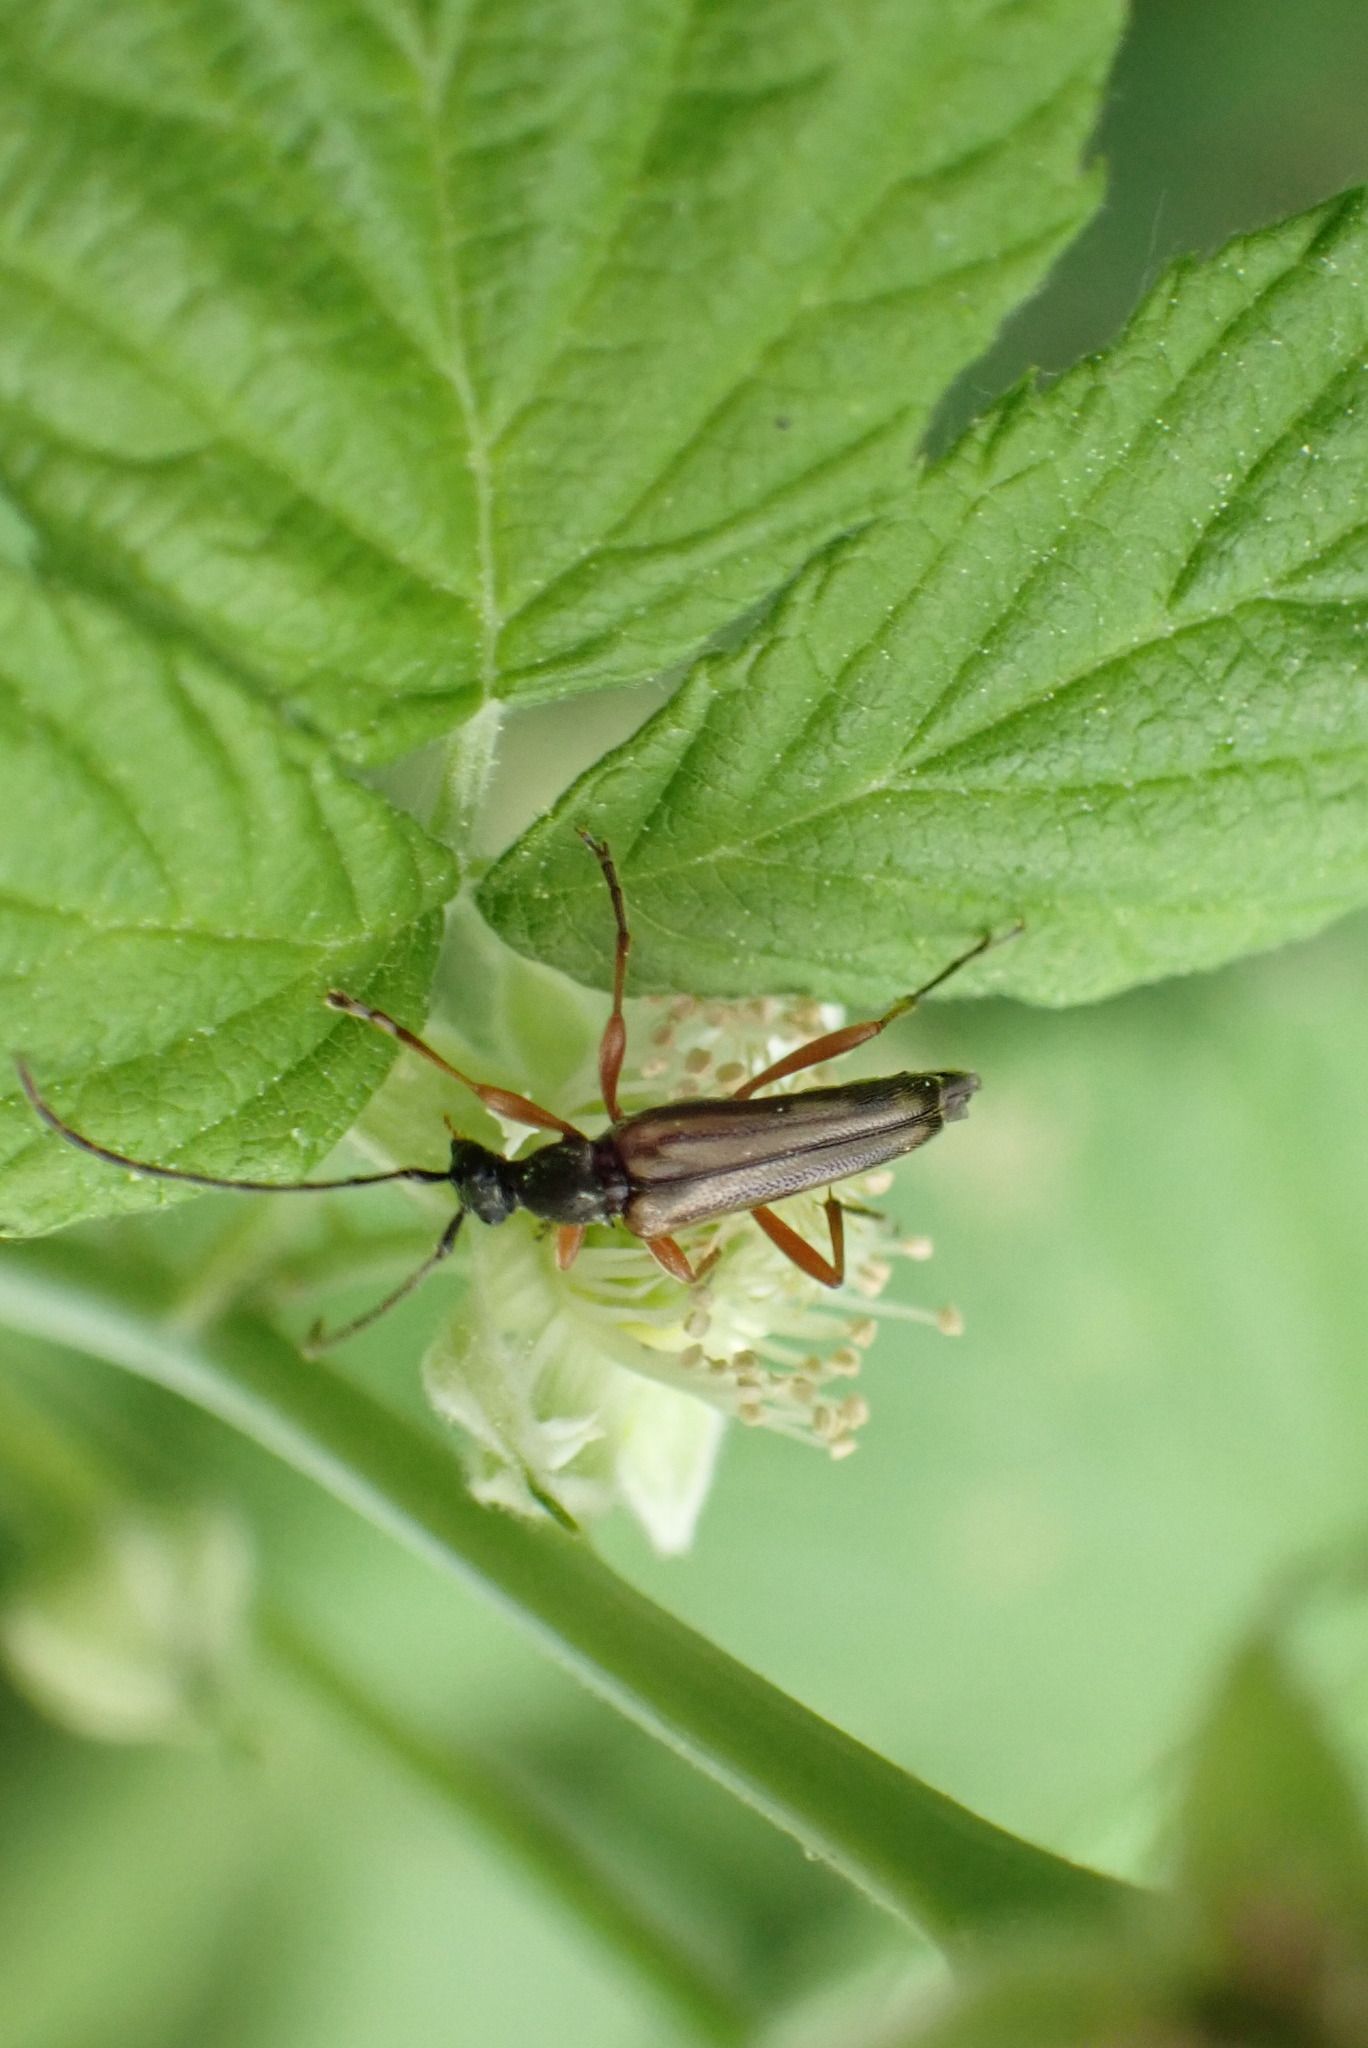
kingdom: Animalia
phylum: Arthropoda
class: Insecta
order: Coleoptera
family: Cerambycidae
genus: Analeptura
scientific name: Analeptura lineola
